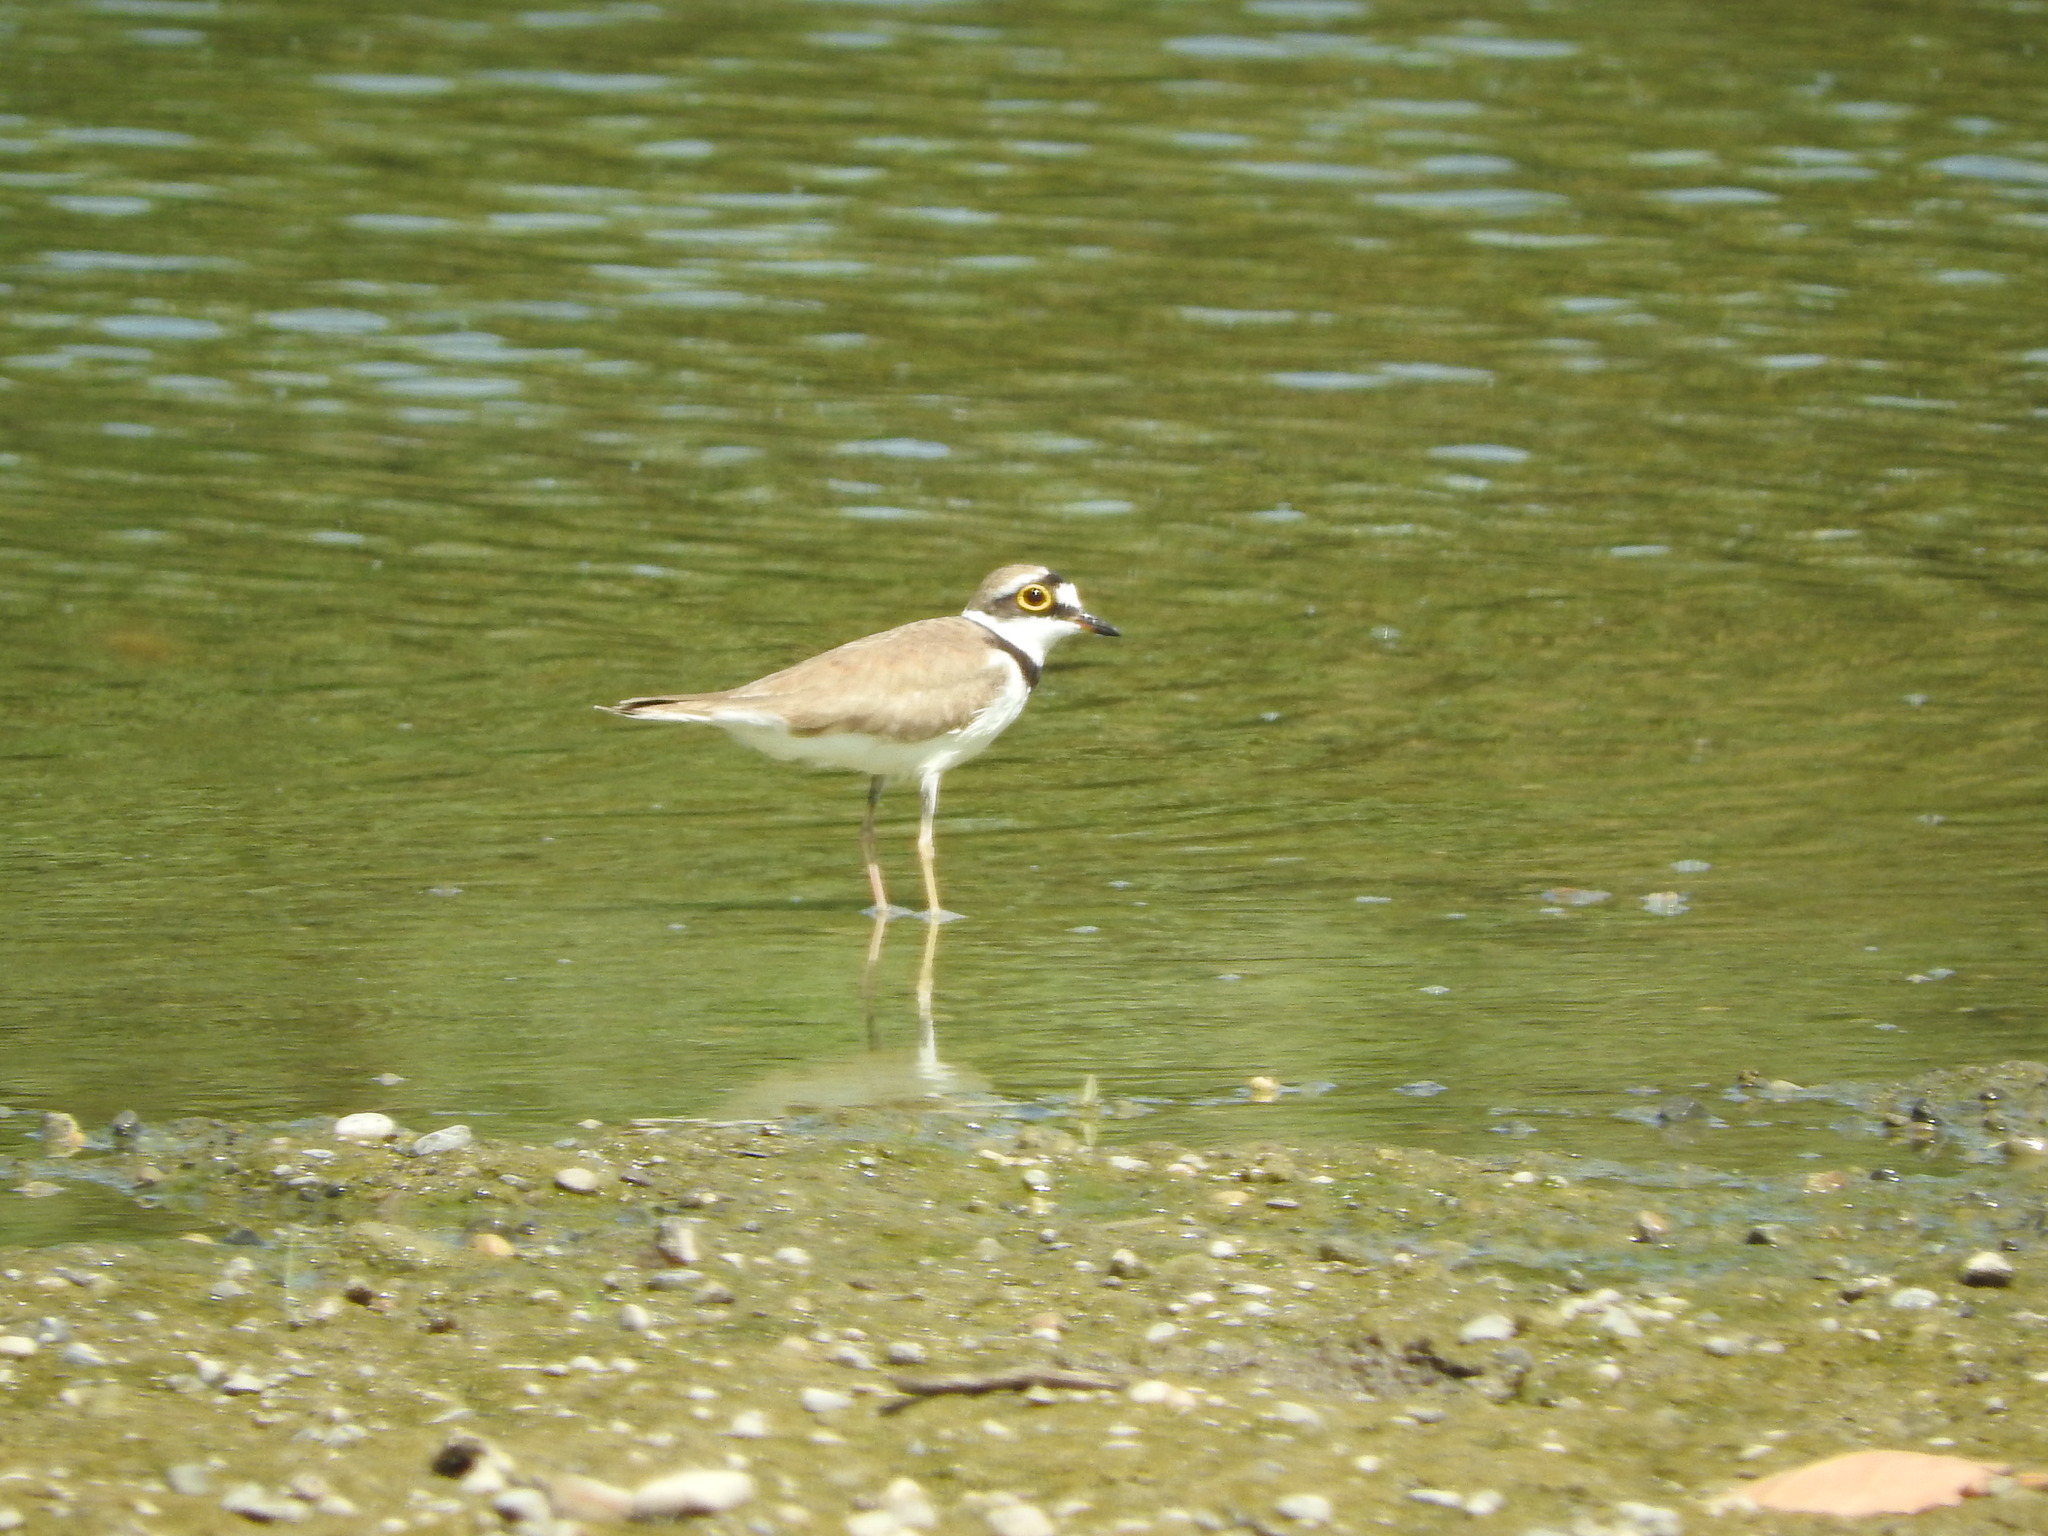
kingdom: Animalia
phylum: Chordata
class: Aves
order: Charadriiformes
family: Charadriidae
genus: Charadrius
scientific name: Charadrius dubius
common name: Little ringed plover
